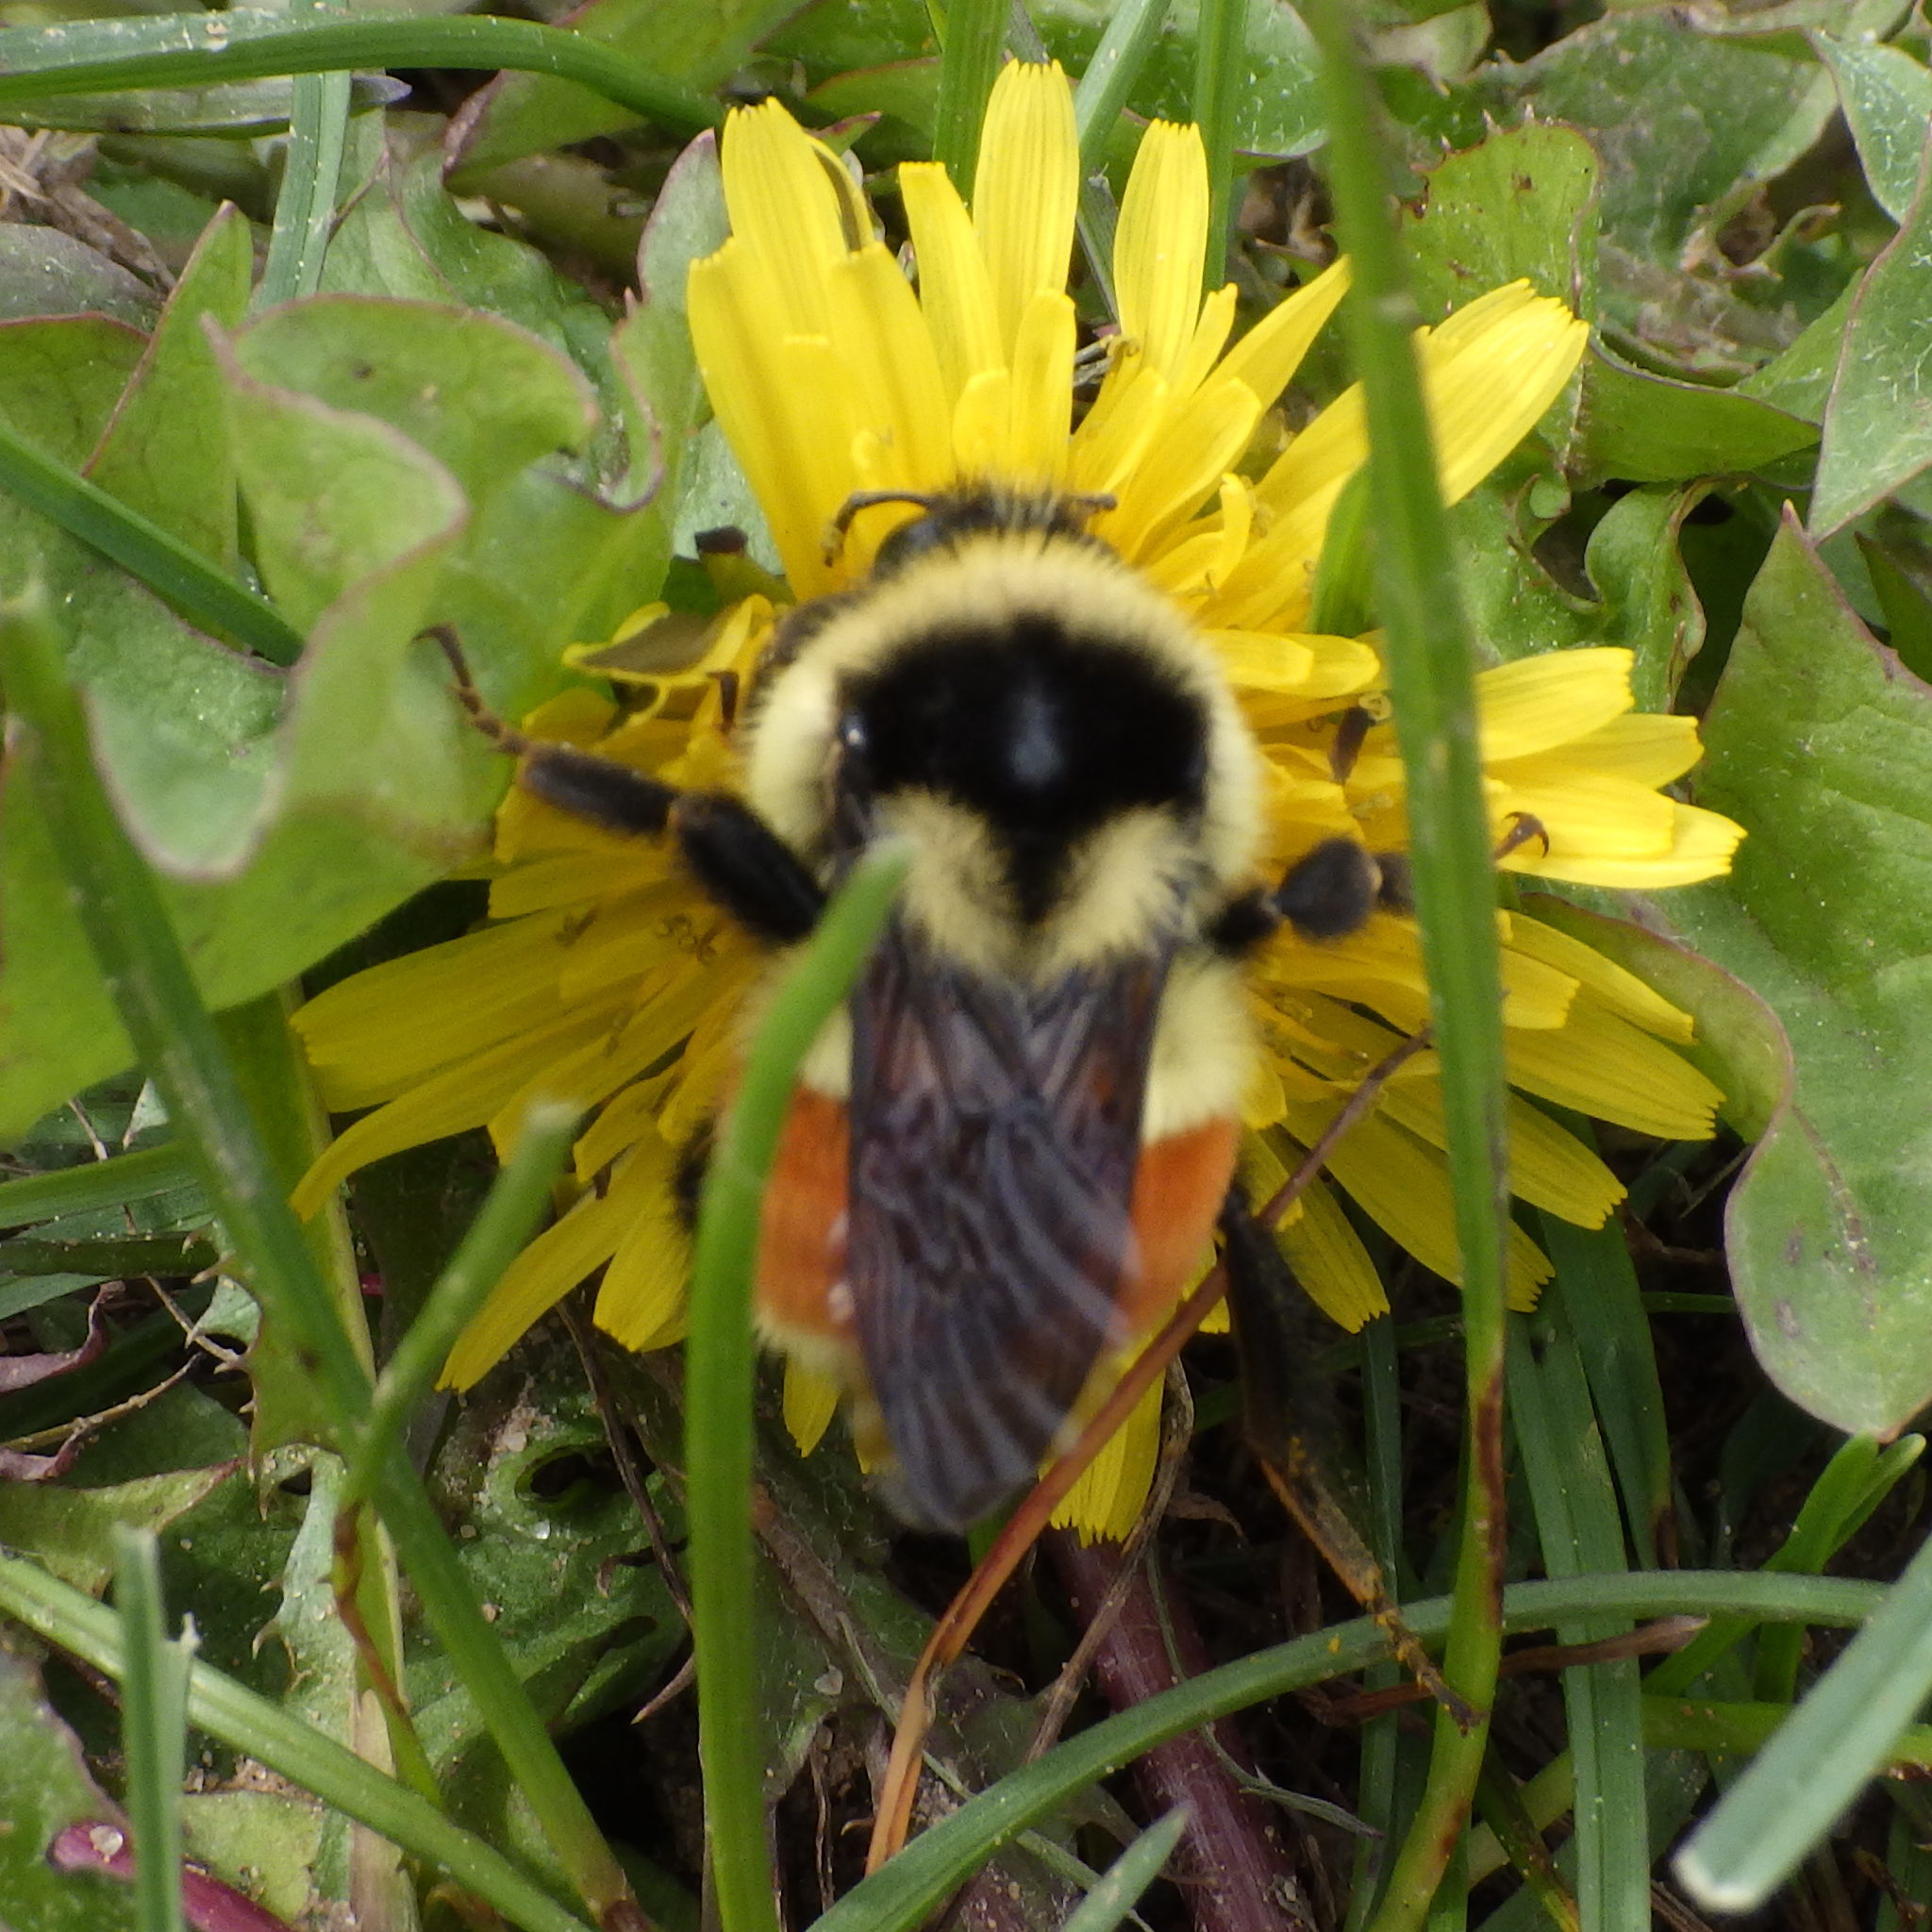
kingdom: Animalia
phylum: Arthropoda
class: Insecta
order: Hymenoptera
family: Apidae
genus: Bombus
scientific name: Bombus ternarius
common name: Tri-colored bumble bee
